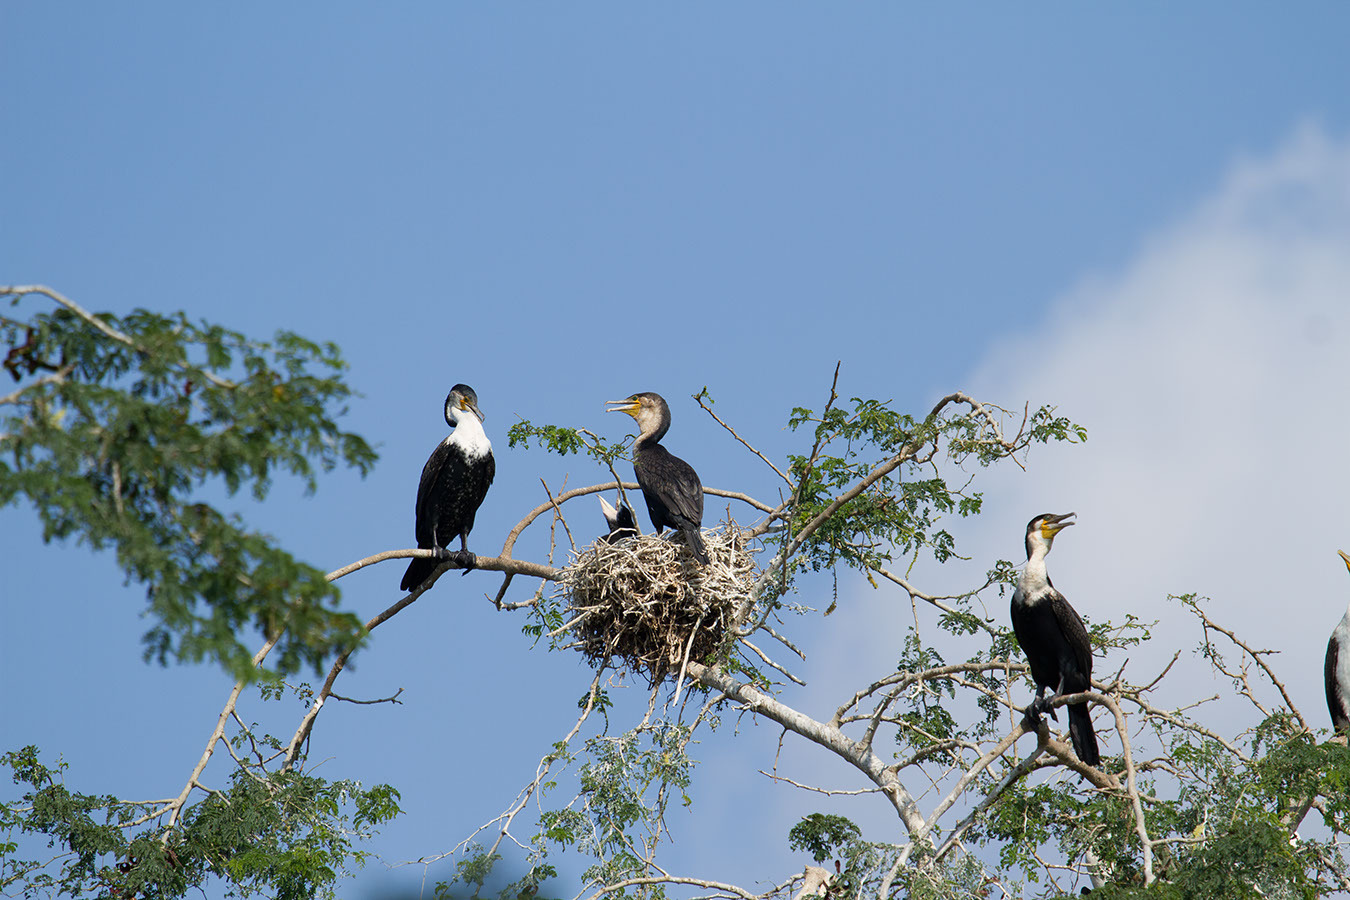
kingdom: Animalia
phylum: Chordata
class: Aves
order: Suliformes
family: Phalacrocoracidae
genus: Phalacrocorax
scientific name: Phalacrocorax carbo
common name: Great cormorant
